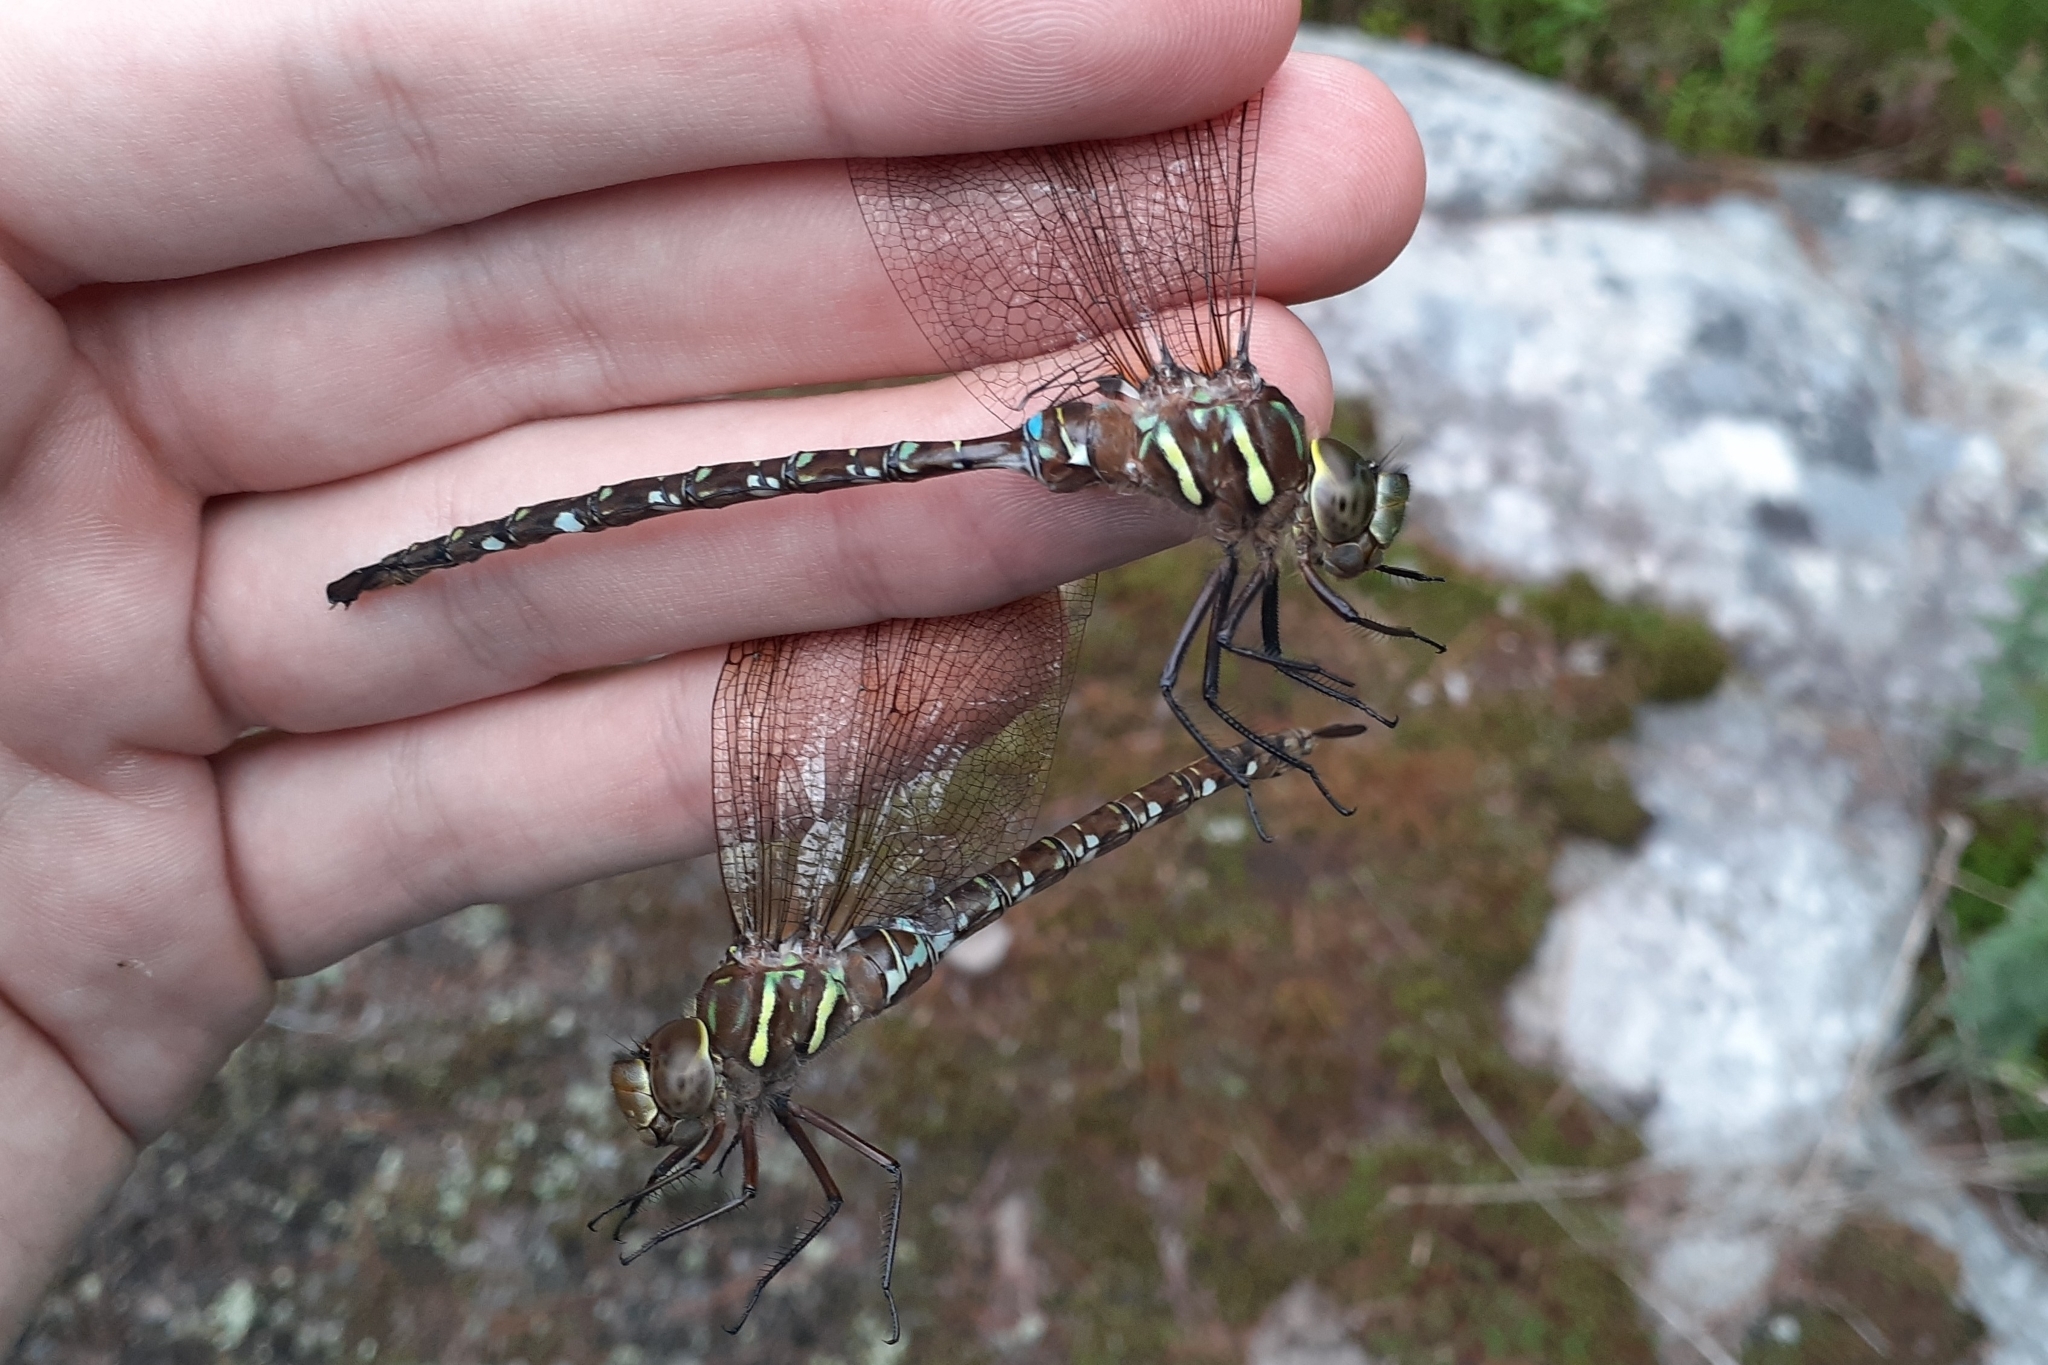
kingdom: Animalia
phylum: Arthropoda
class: Insecta
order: Odonata
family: Aeshnidae
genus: Aeshna
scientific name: Aeshna umbrosa
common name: Shadow darner
